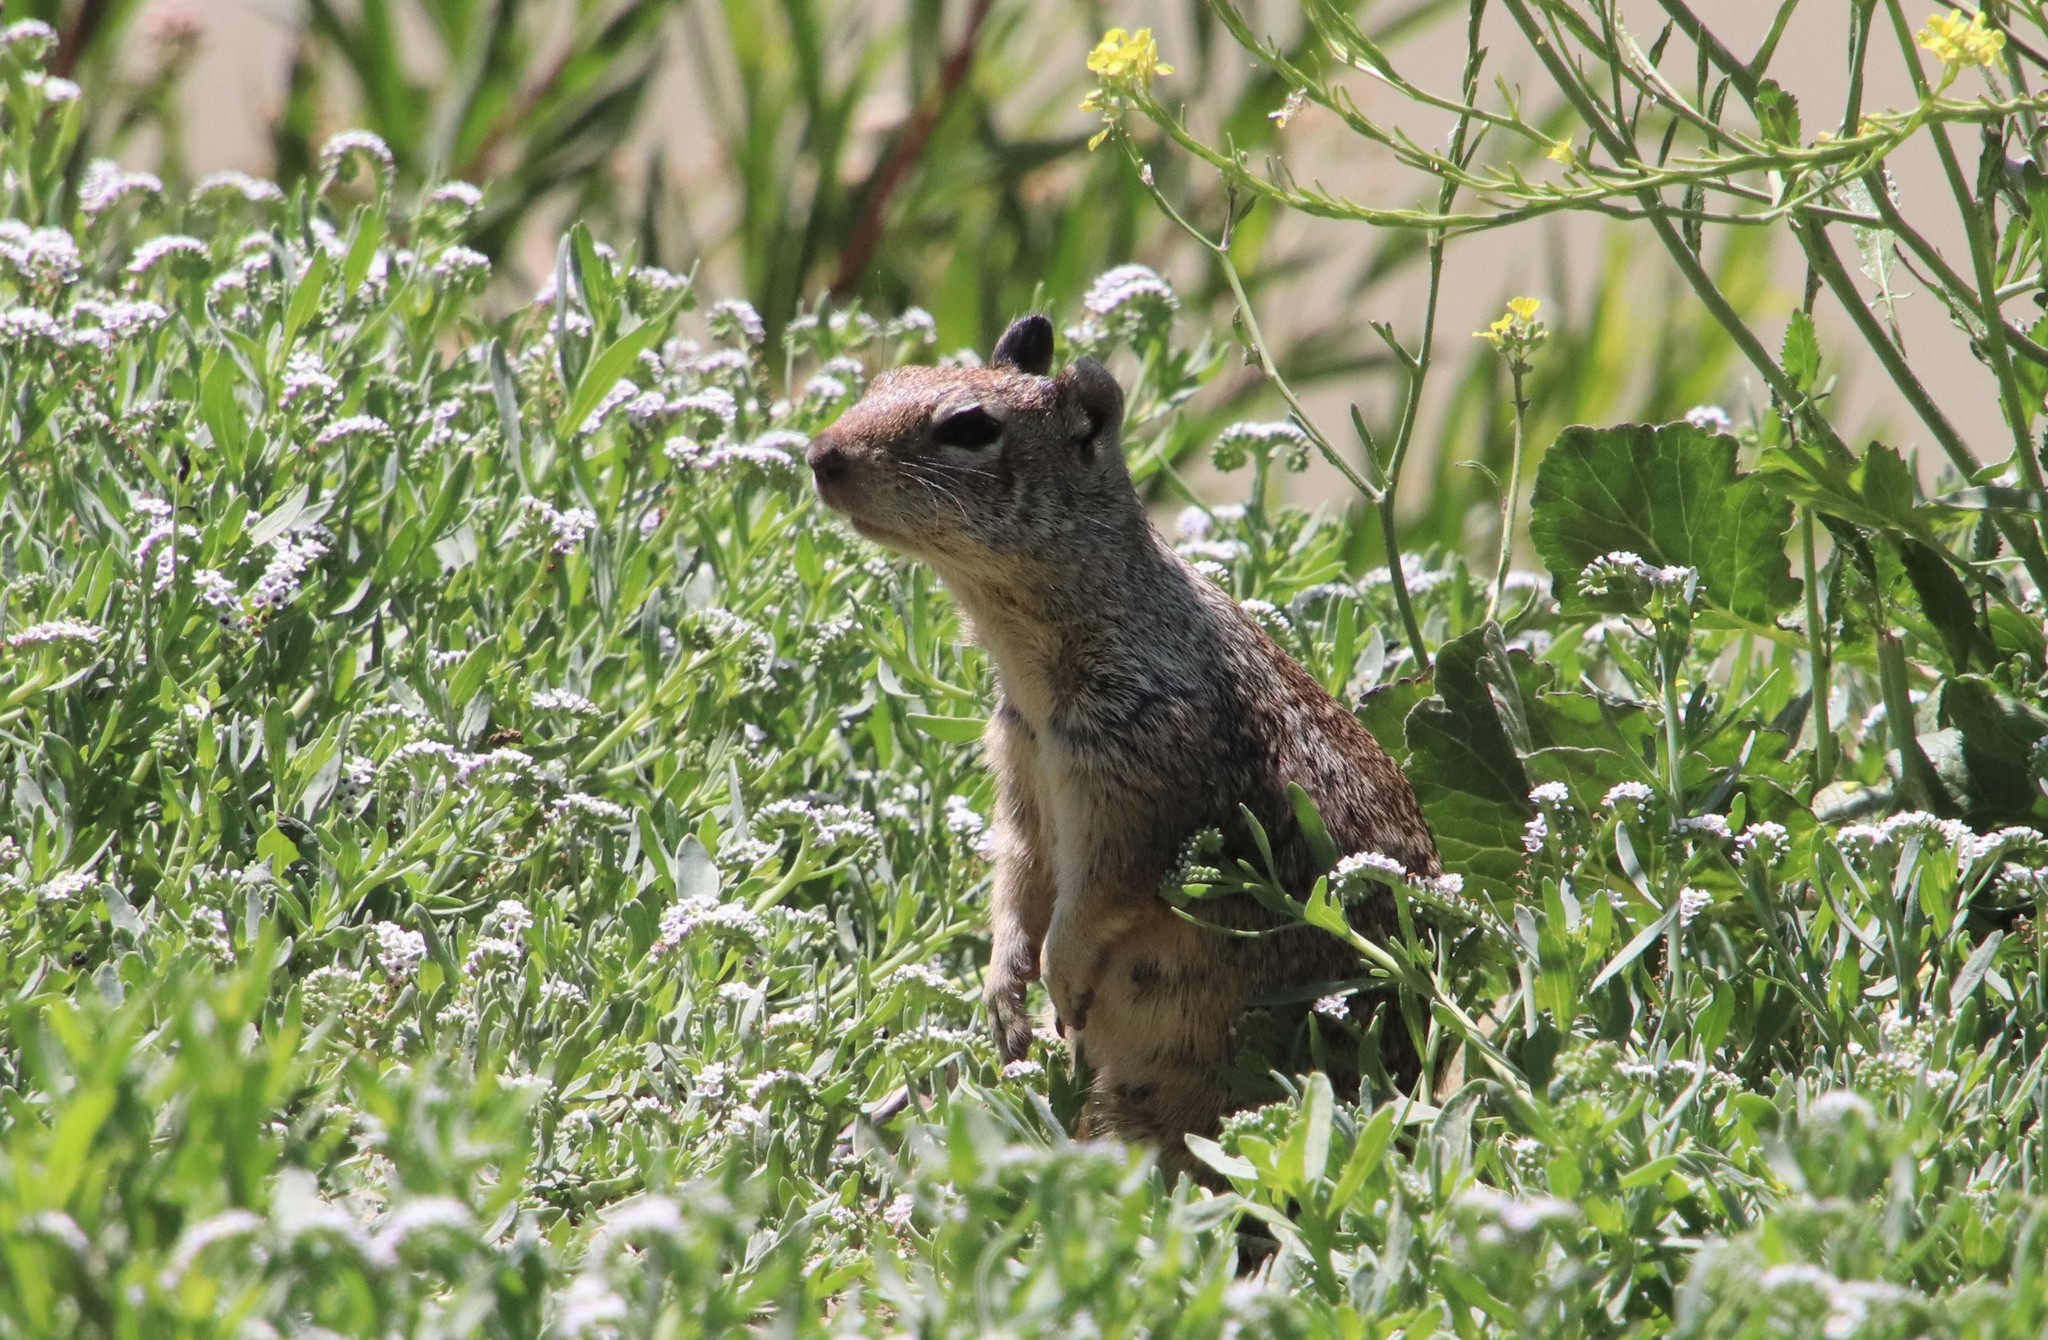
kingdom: Animalia
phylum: Chordata
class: Mammalia
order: Rodentia
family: Sciuridae
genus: Otospermophilus
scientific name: Otospermophilus beecheyi
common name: California ground squirrel
